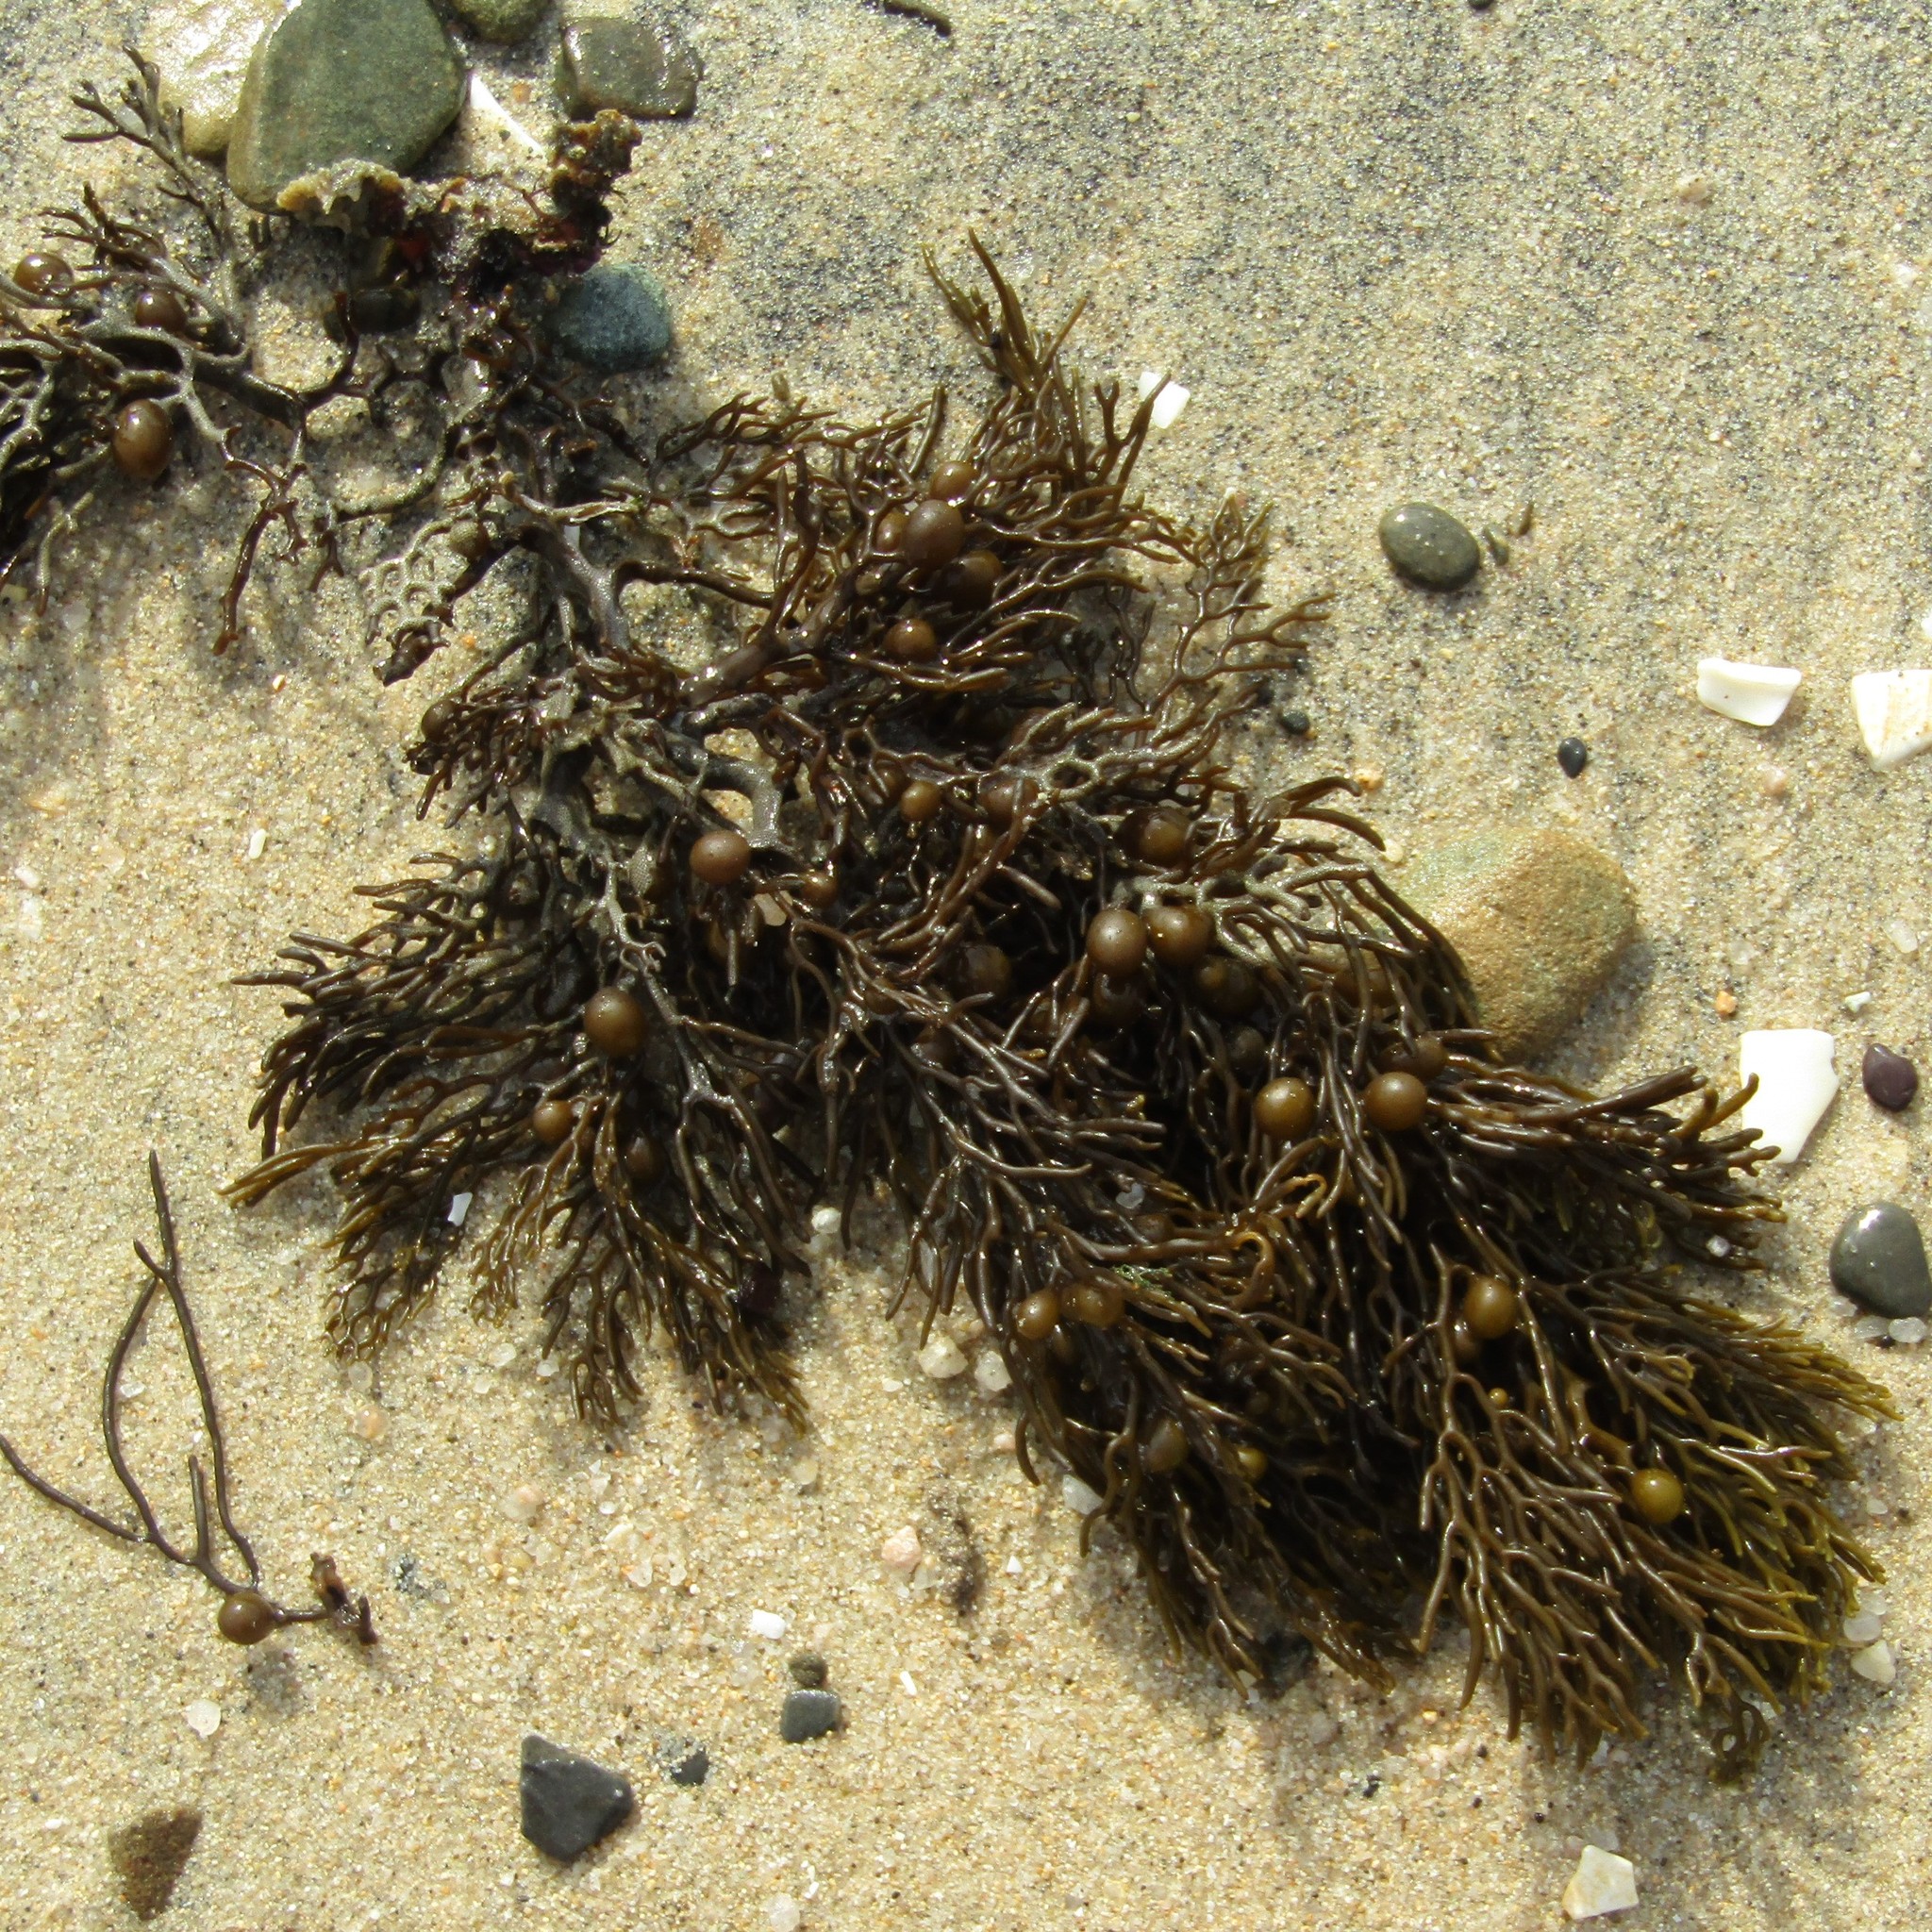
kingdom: Chromista
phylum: Ochrophyta
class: Phaeophyceae
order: Fucales
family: Sargassaceae
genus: Cystophora
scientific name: Cystophora scalaris
